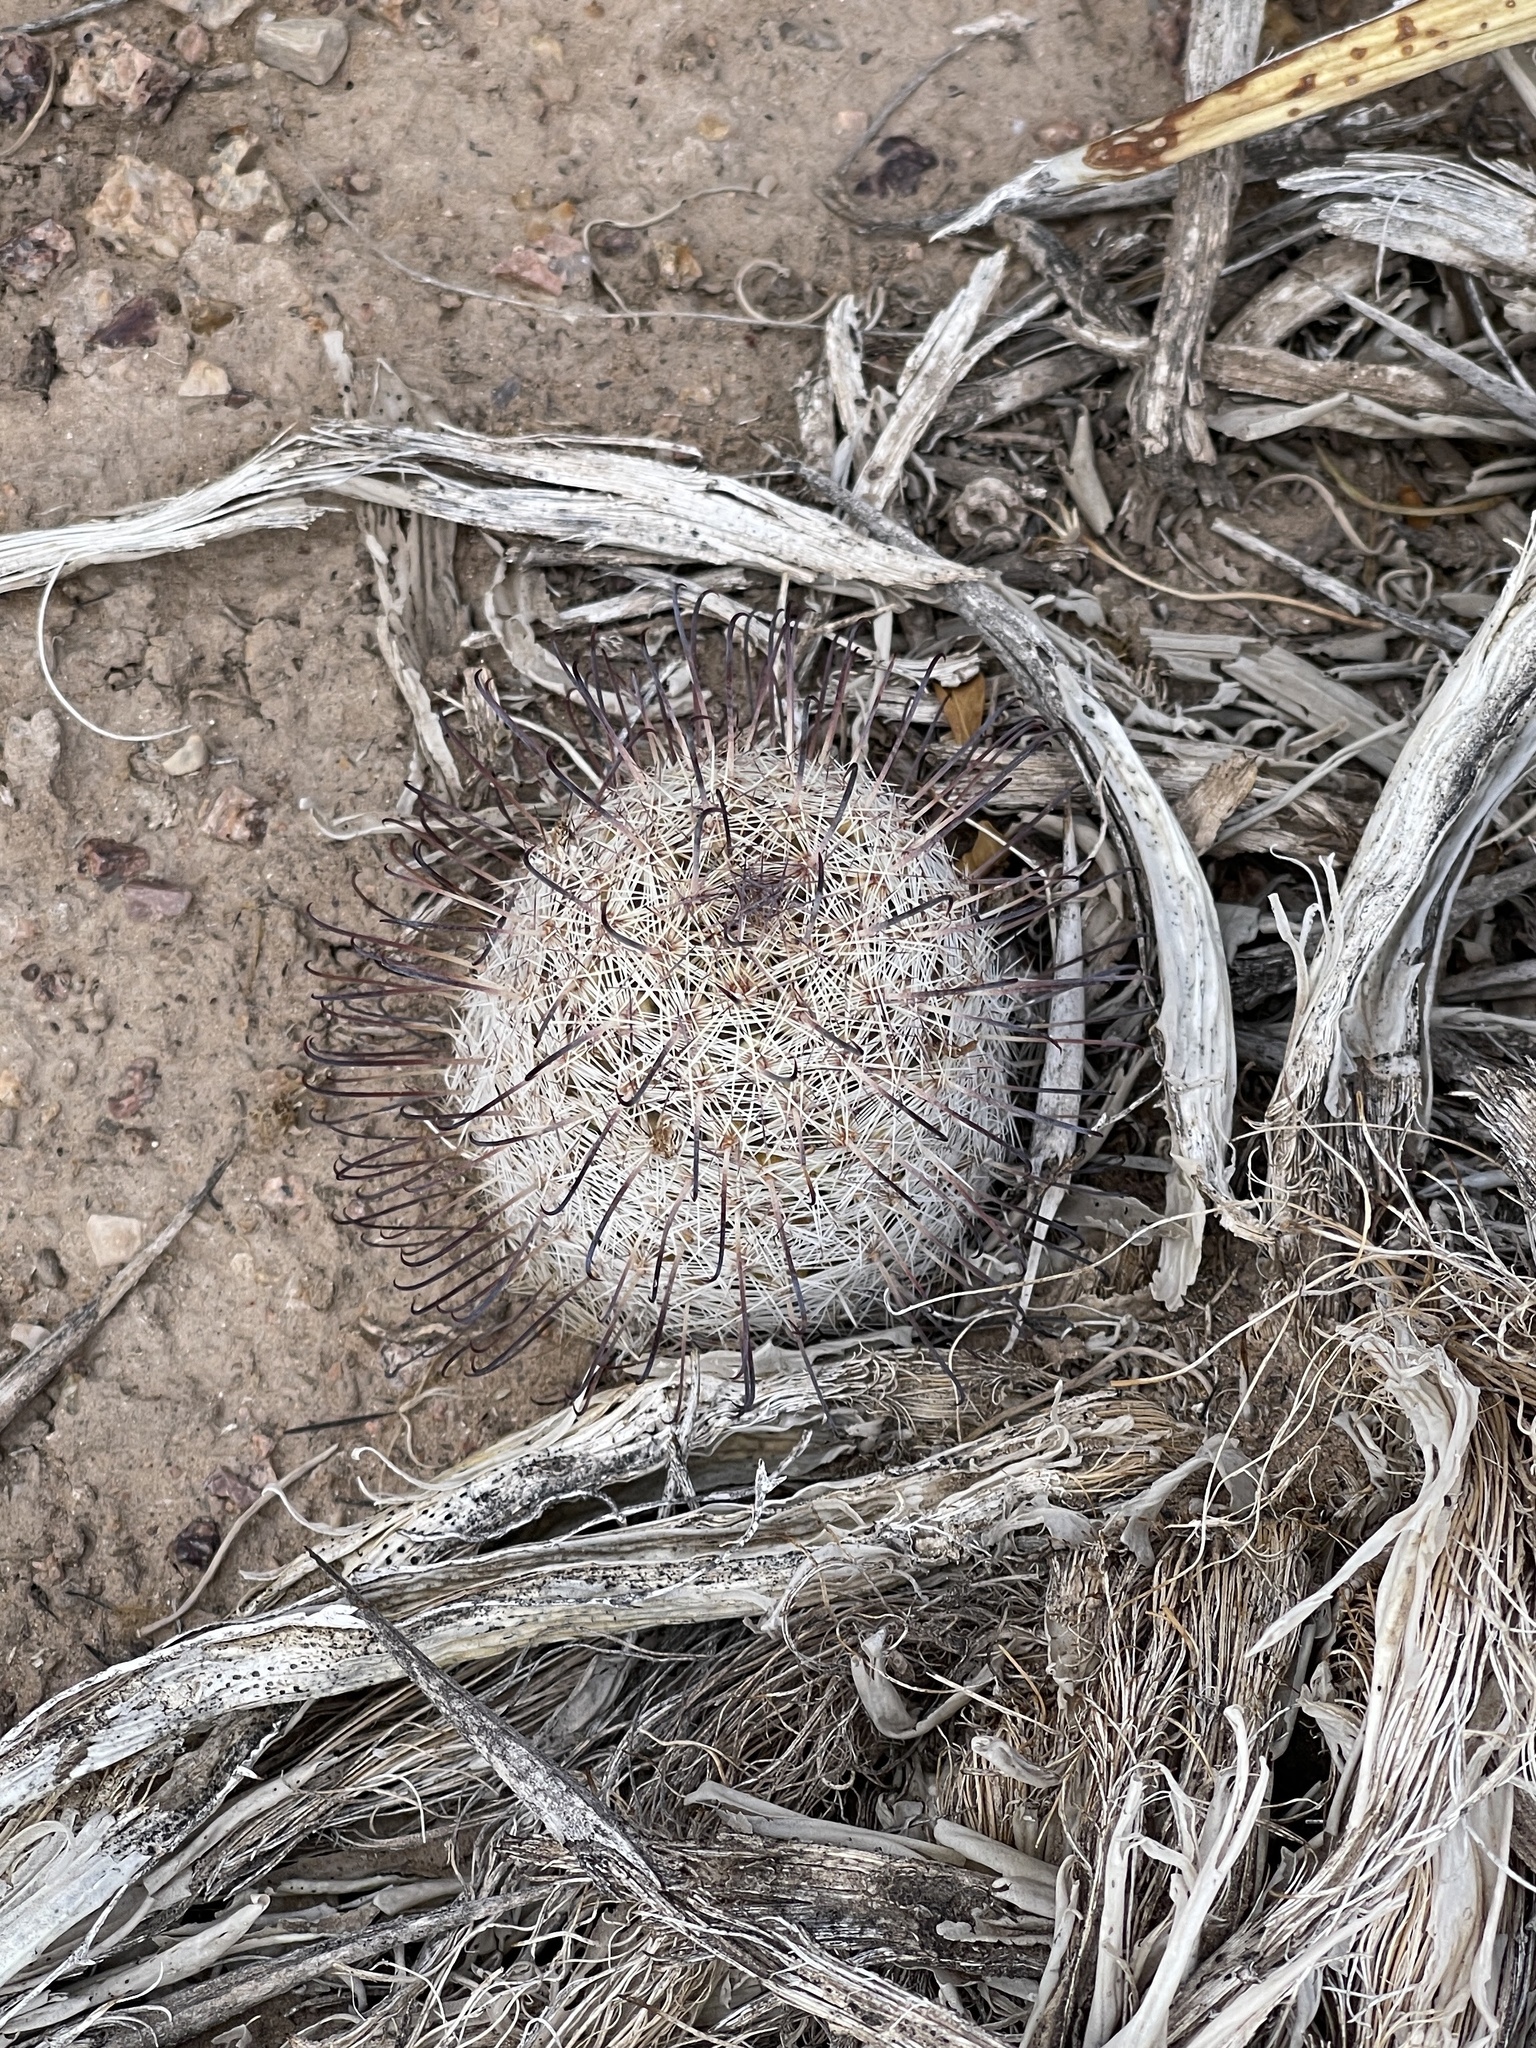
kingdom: Plantae
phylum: Tracheophyta
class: Magnoliopsida
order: Caryophyllales
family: Cactaceae
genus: Cochemiea
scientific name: Cochemiea grahamii
